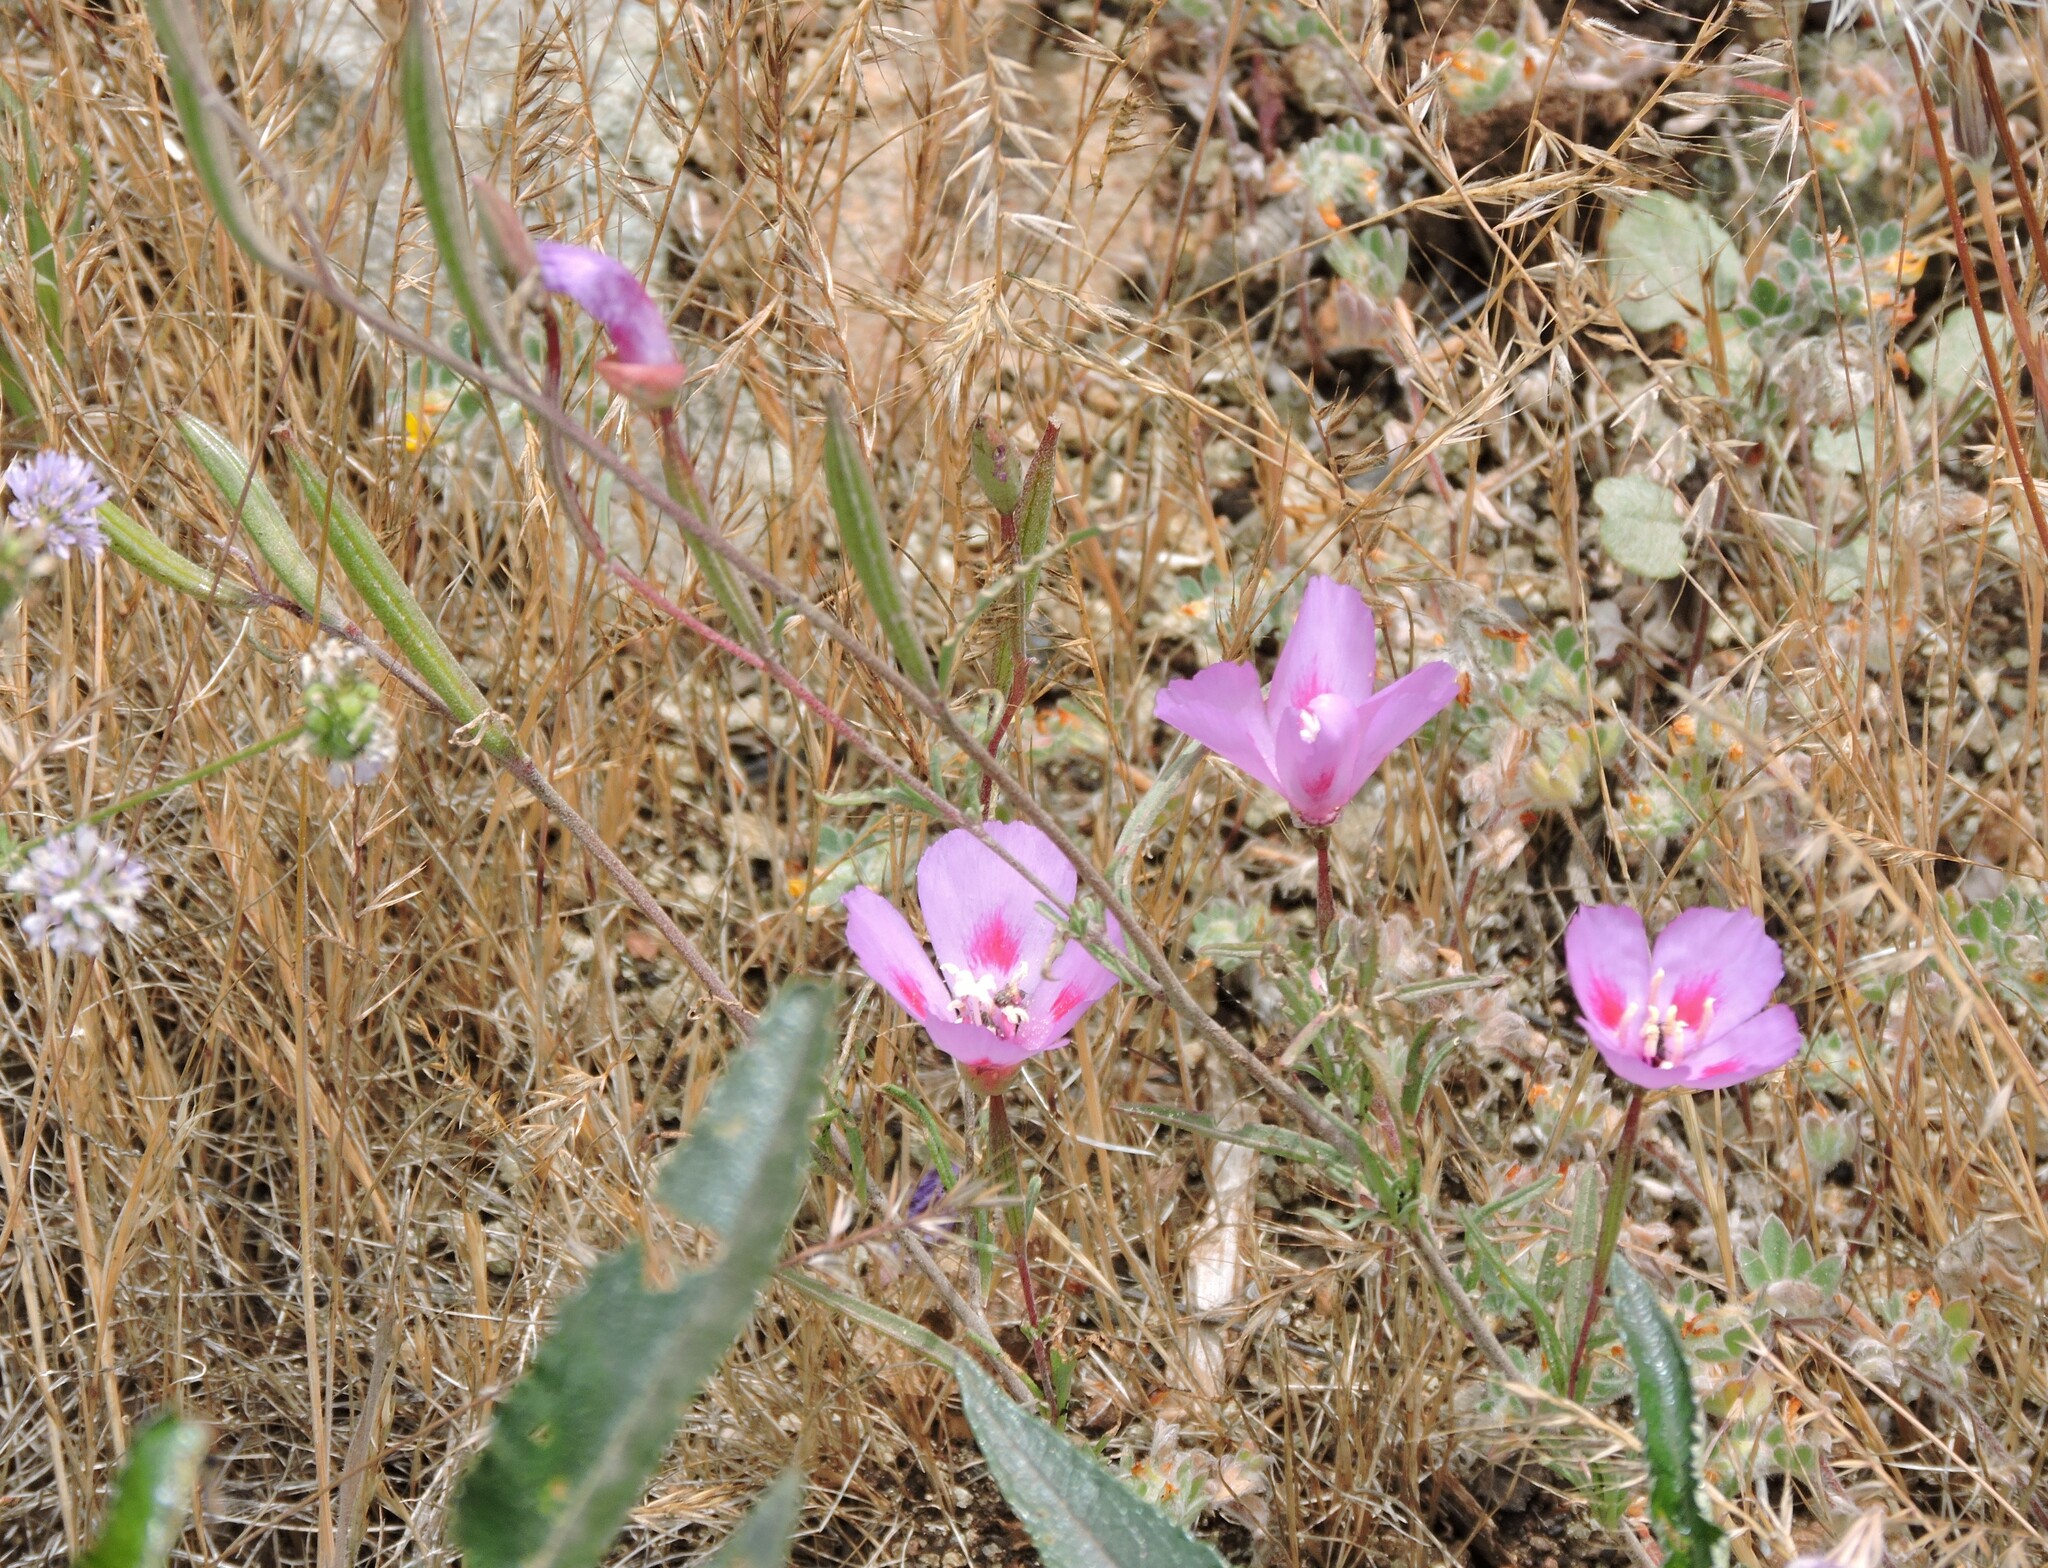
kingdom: Plantae
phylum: Tracheophyta
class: Magnoliopsida
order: Myrtales
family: Onagraceae
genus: Clarkia
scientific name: Clarkia amoena
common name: Godetia
